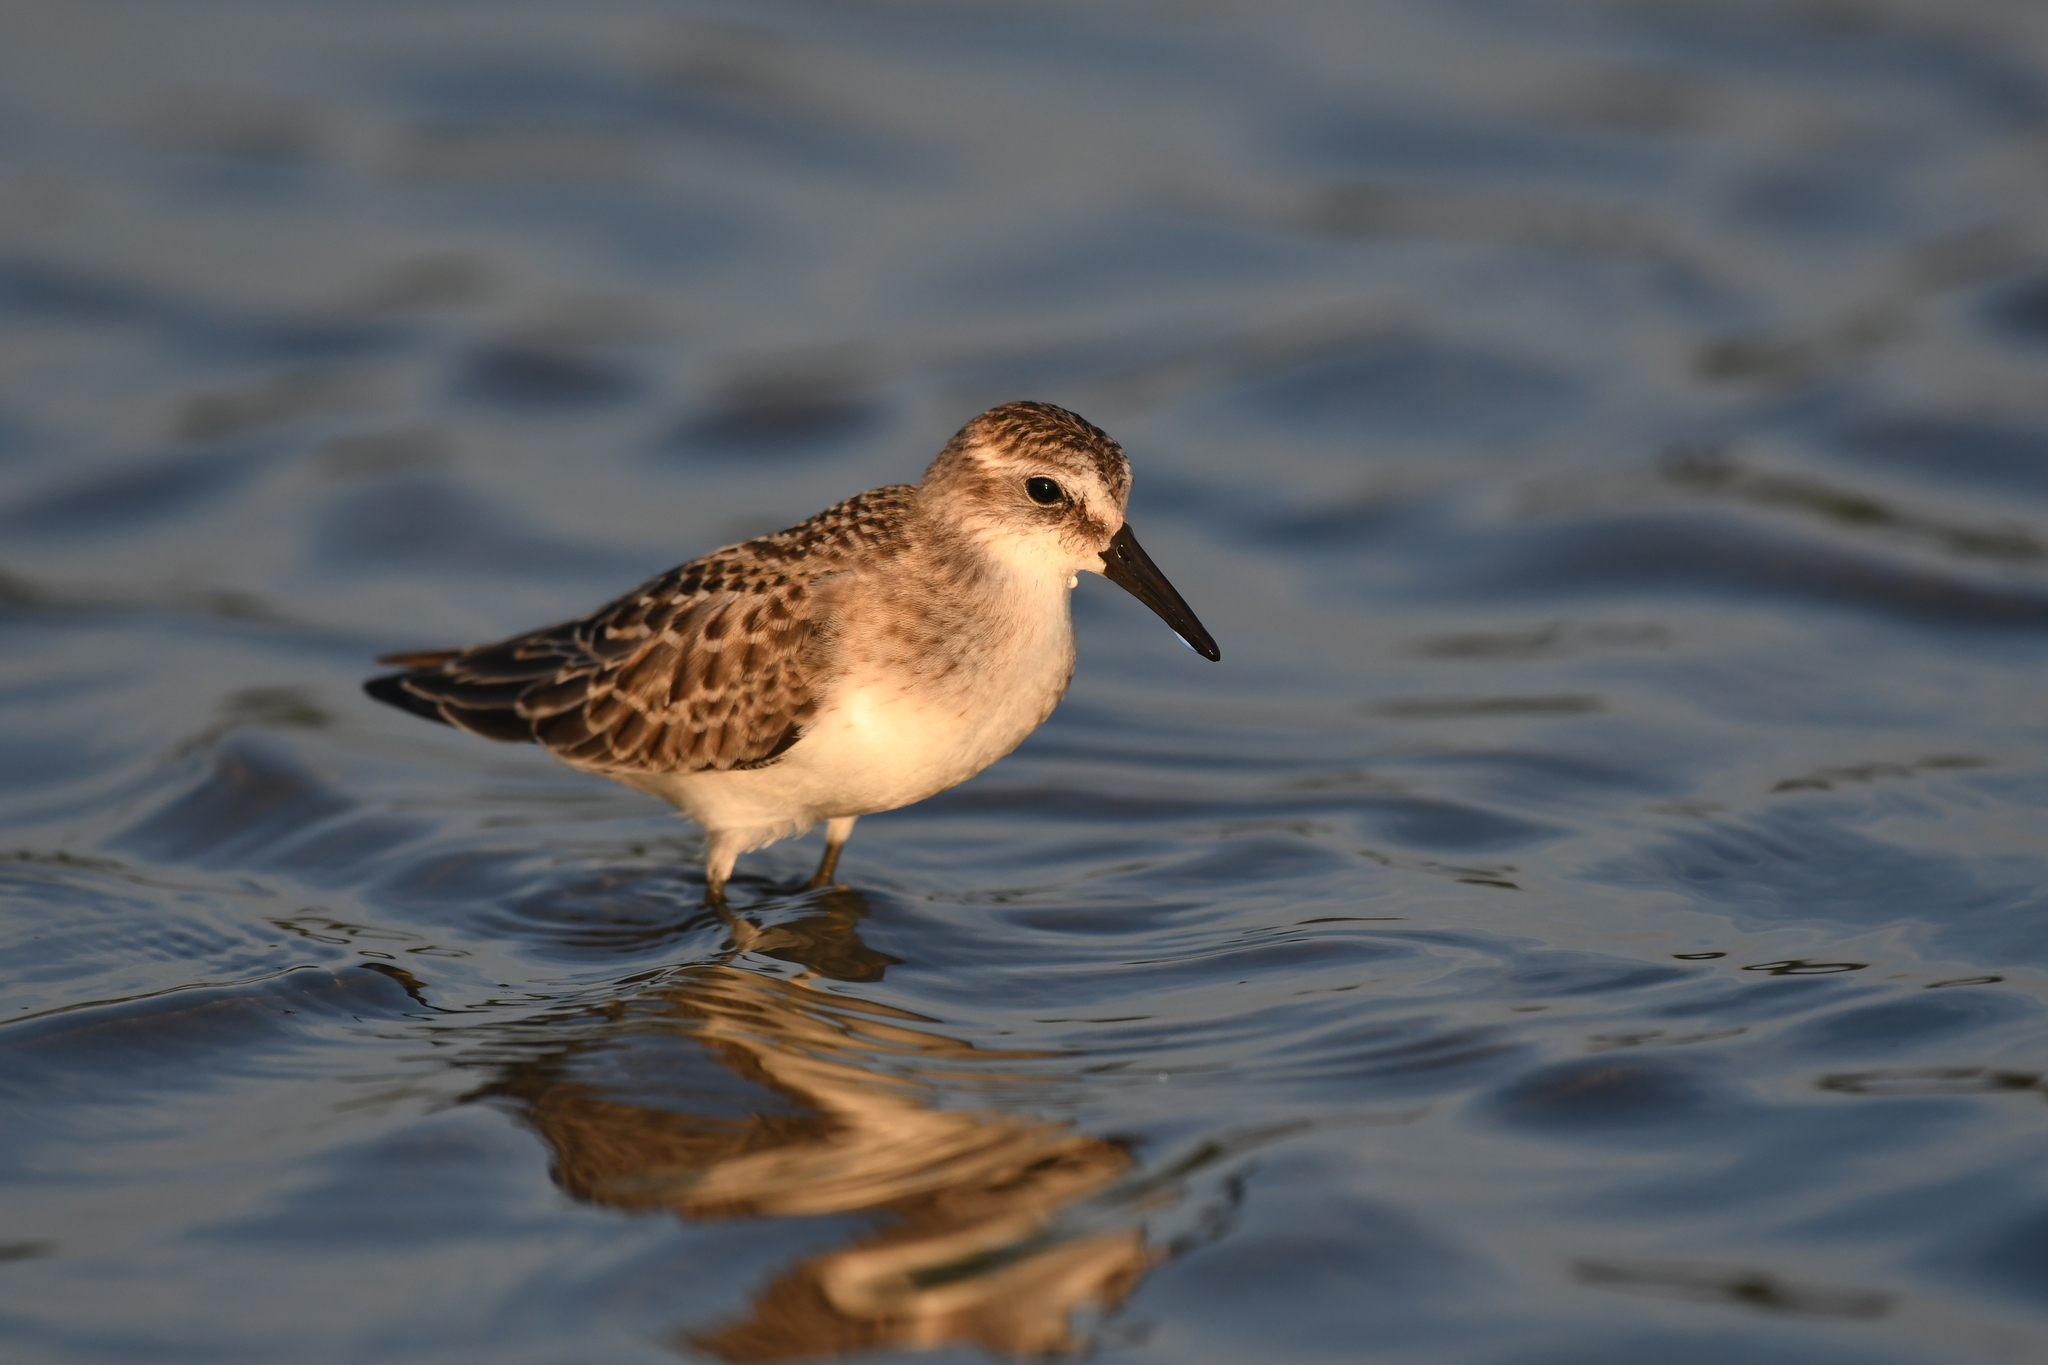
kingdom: Animalia
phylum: Chordata
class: Aves
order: Charadriiformes
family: Scolopacidae
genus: Calidris
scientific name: Calidris pusilla
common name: Semipalmated sandpiper
